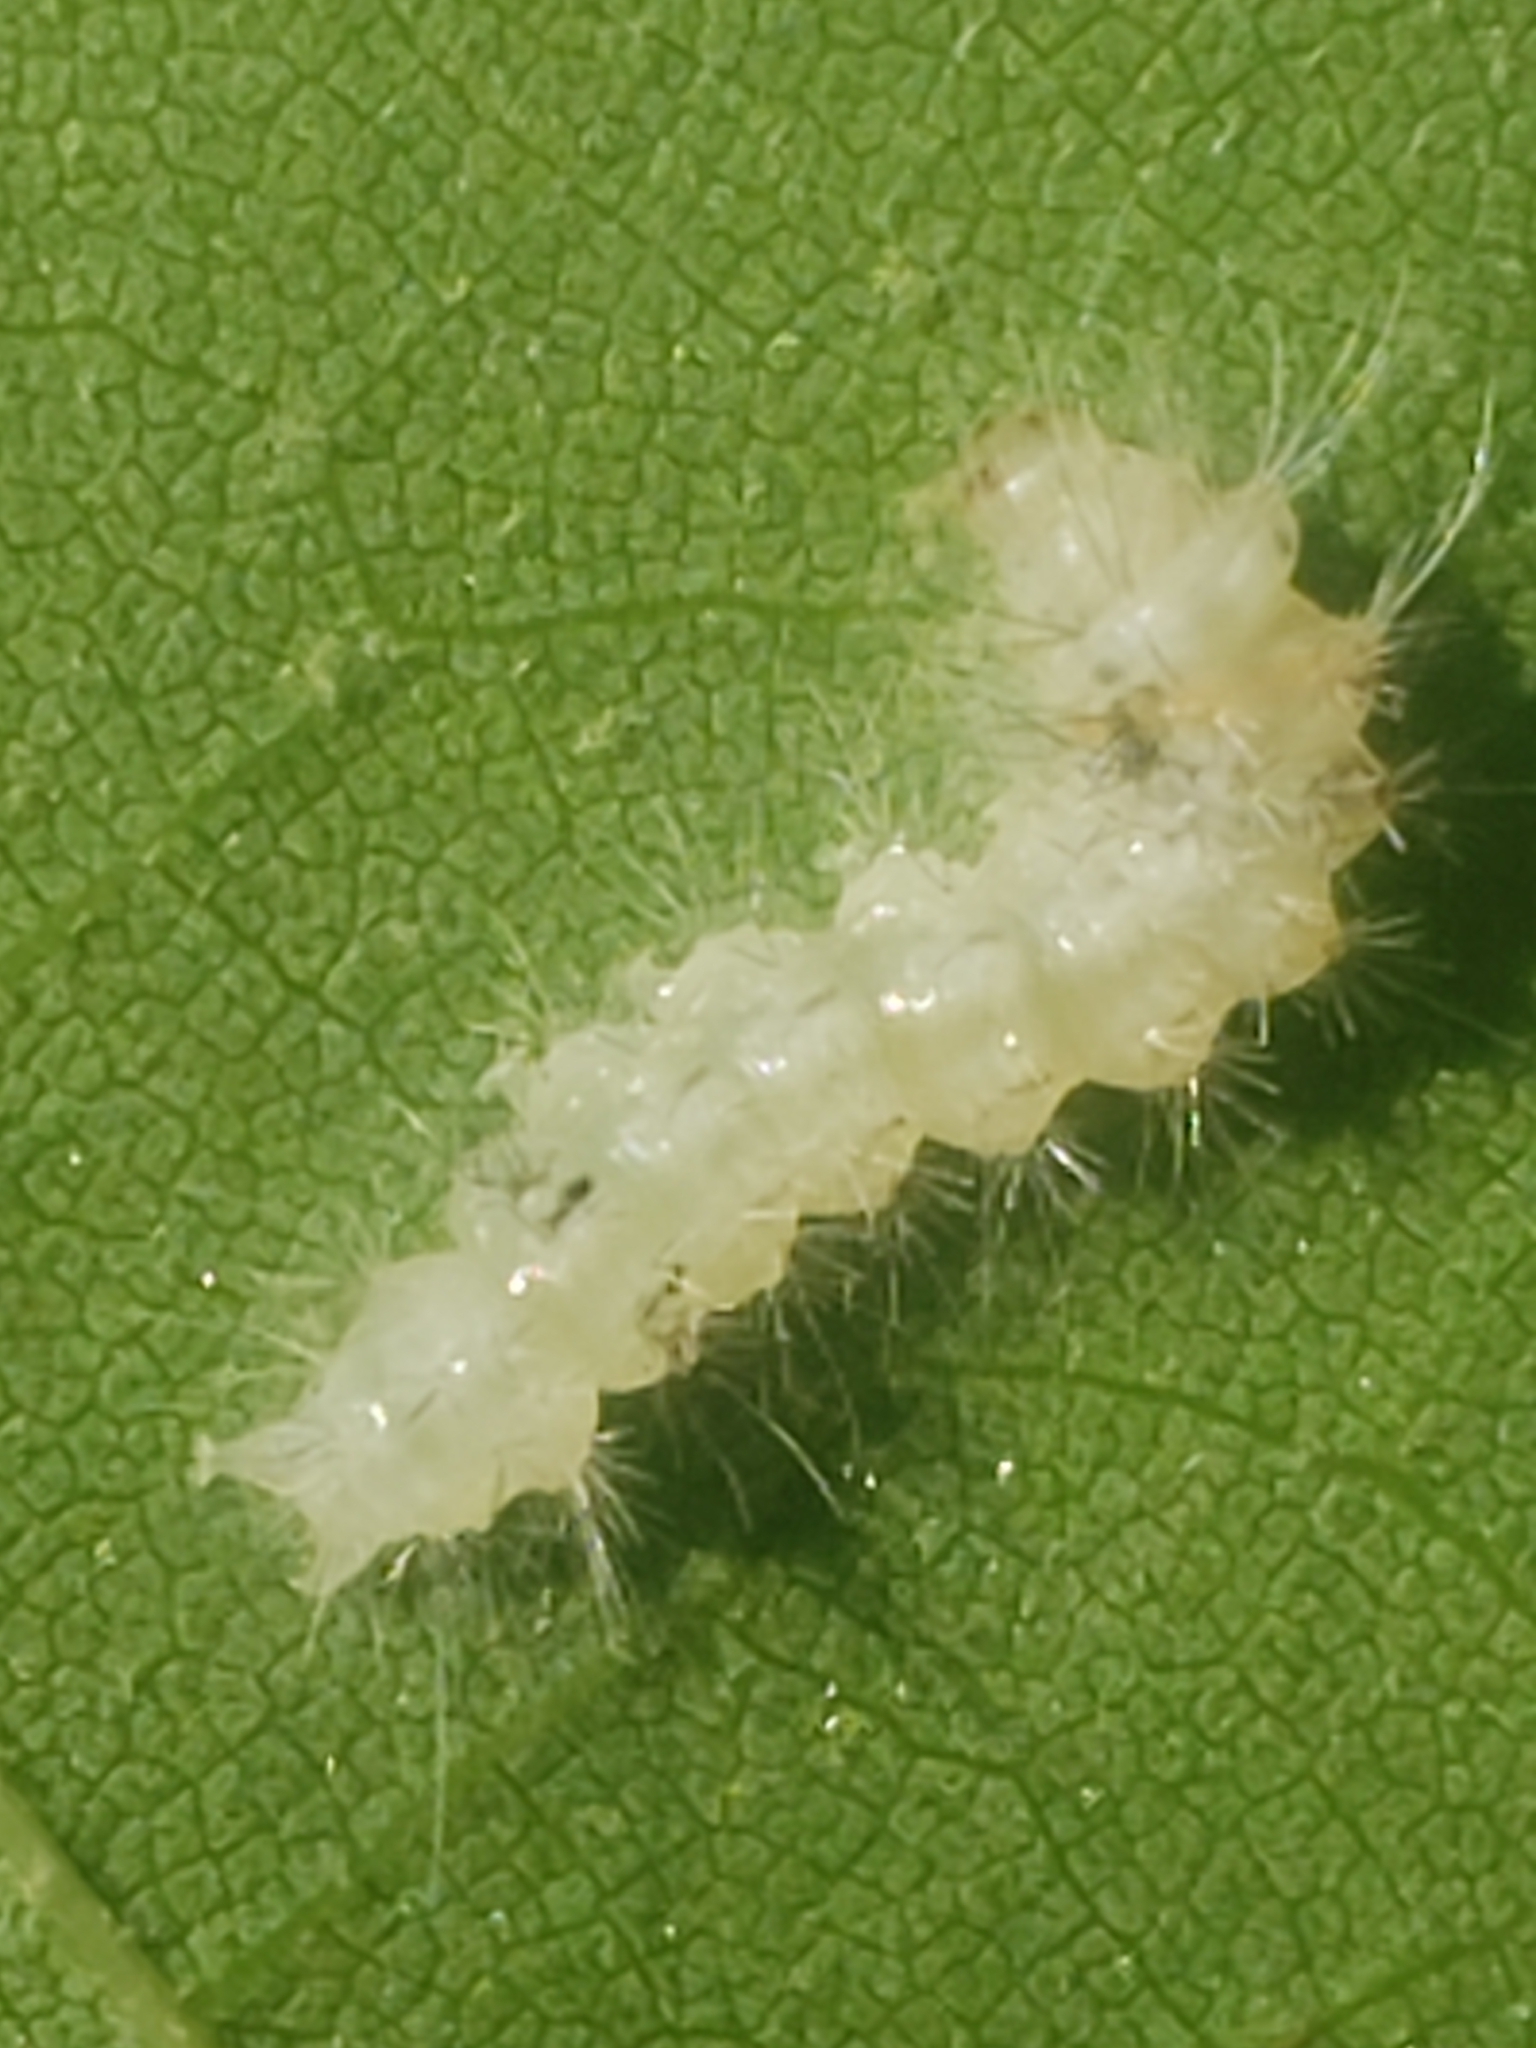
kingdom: Animalia
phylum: Arthropoda
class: Insecta
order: Lepidoptera
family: Erebidae
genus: Halysidota
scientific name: Halysidota harrisii
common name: Sycamore tussock moth
